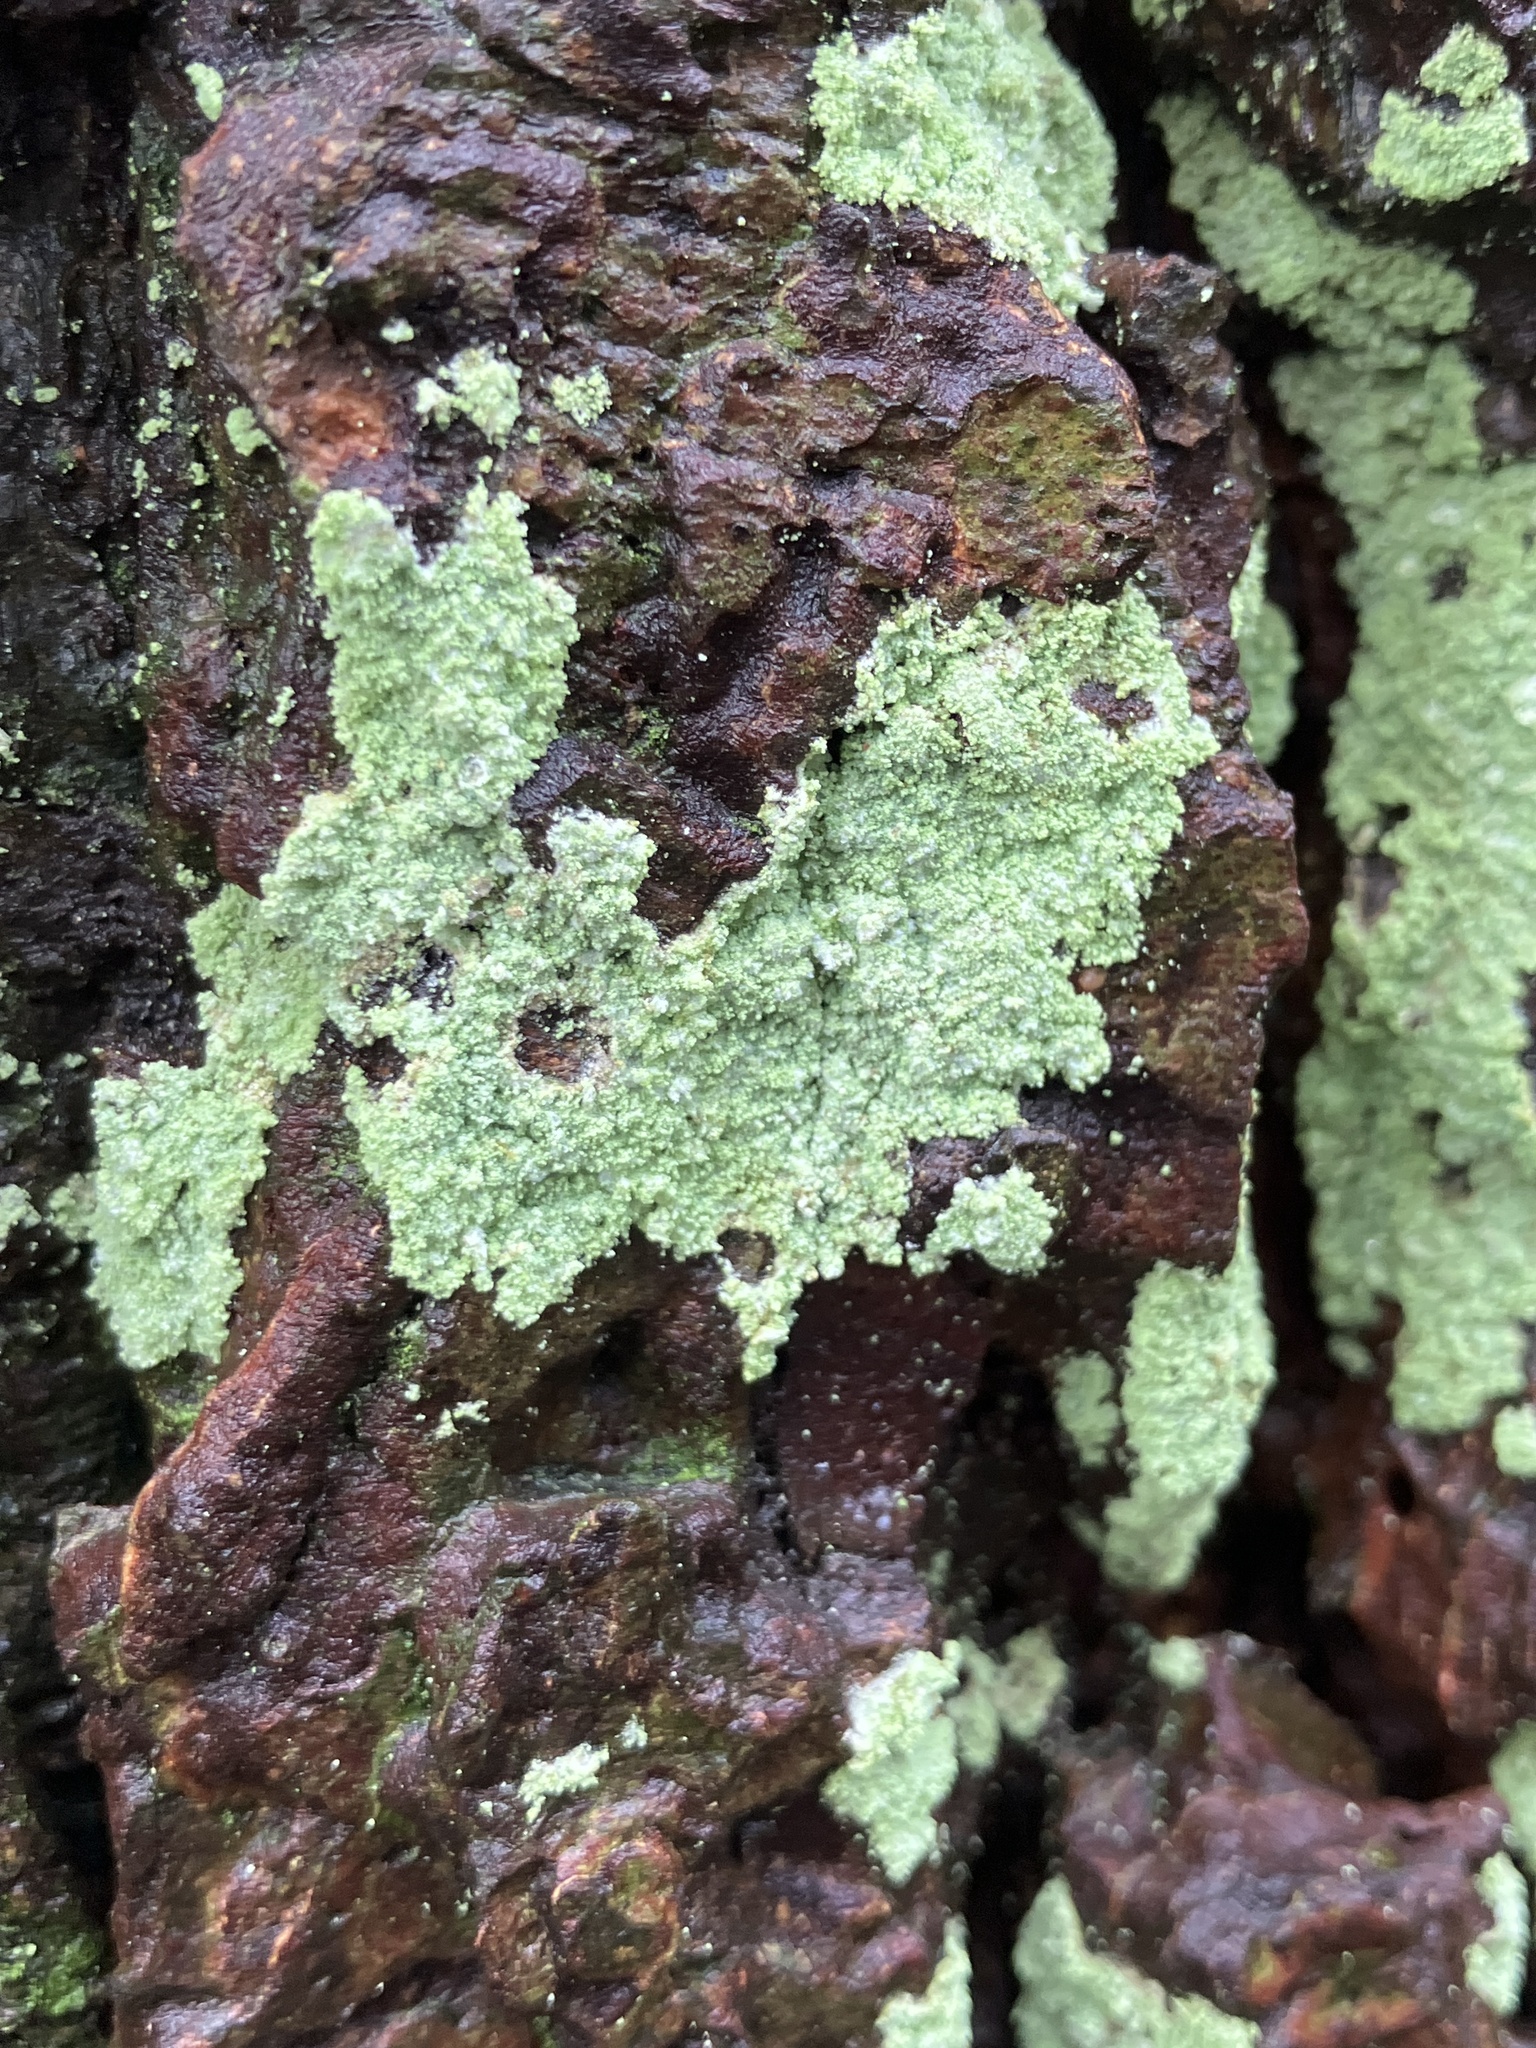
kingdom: Fungi
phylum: Ascomycota
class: Lecanoromycetes
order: Lecanorales
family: Stereocaulaceae
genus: Lepraria
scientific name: Lepraria
